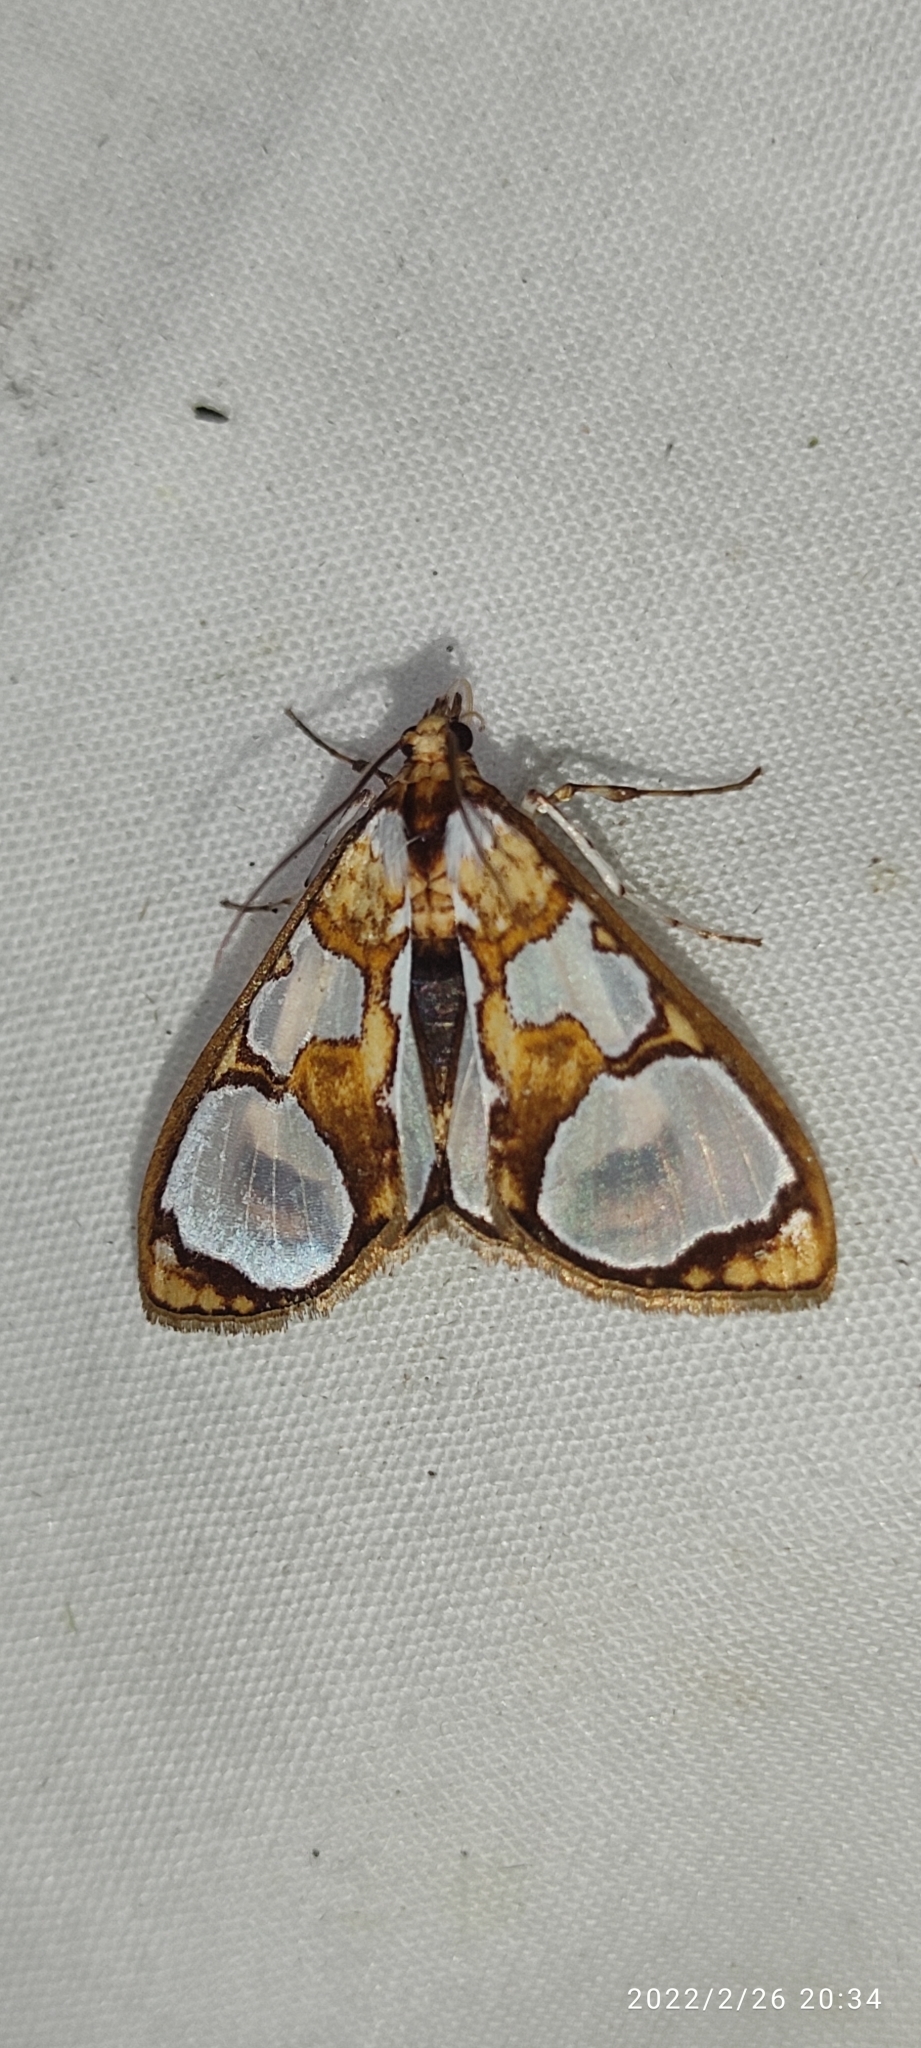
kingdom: Animalia
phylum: Arthropoda
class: Insecta
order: Lepidoptera
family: Crambidae
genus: Glyphodes
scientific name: Glyphodes grandisalis
